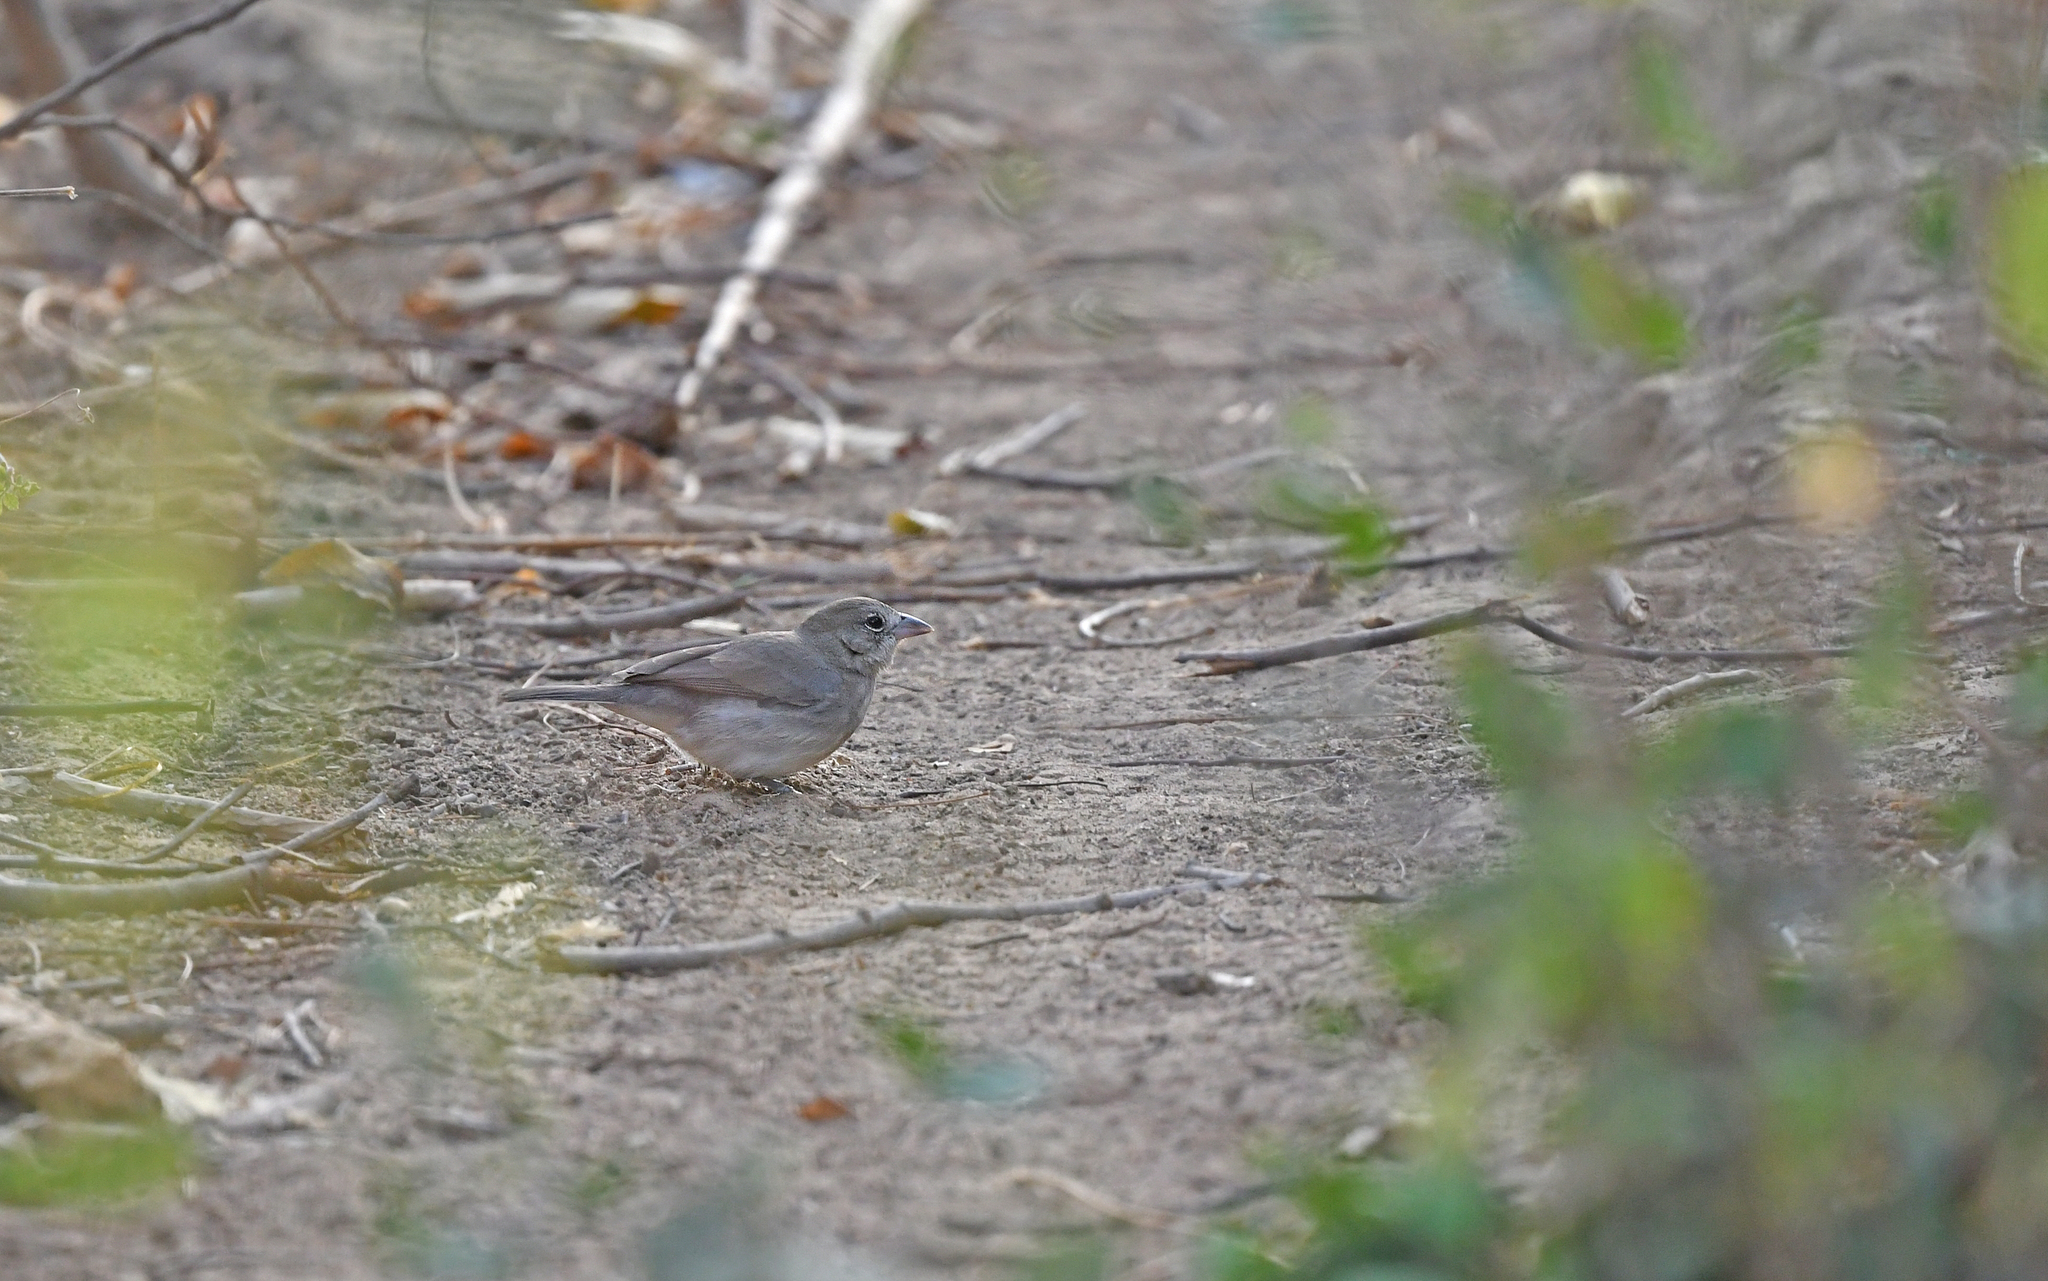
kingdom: Animalia
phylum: Chordata
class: Aves
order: Passeriformes
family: Thraupidae
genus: Coryphospingus
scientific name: Coryphospingus pileatus
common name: Grey pileated finch
